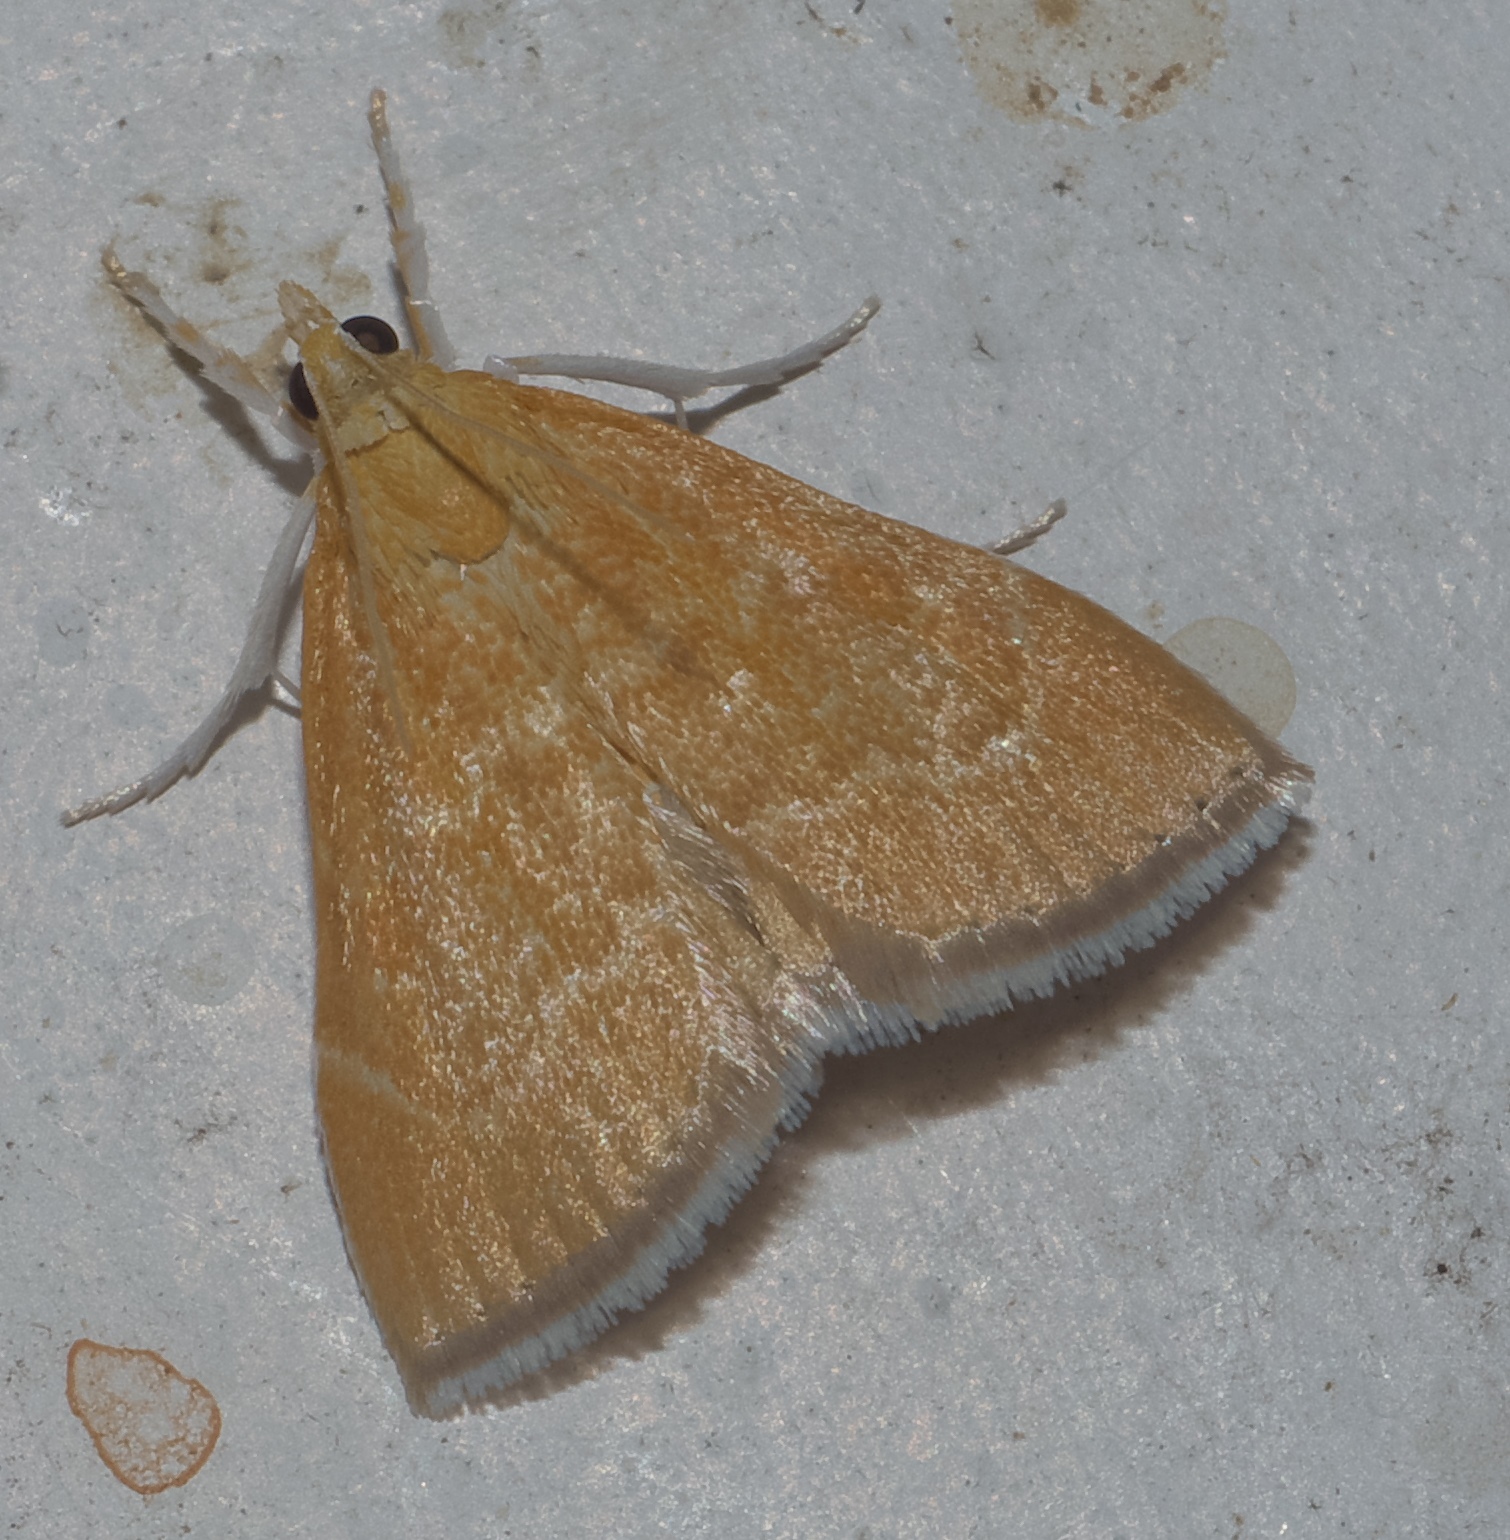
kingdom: Animalia
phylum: Arthropoda
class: Insecta
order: Lepidoptera
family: Crambidae
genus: Glaphyria
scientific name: Glaphyria invisalis
